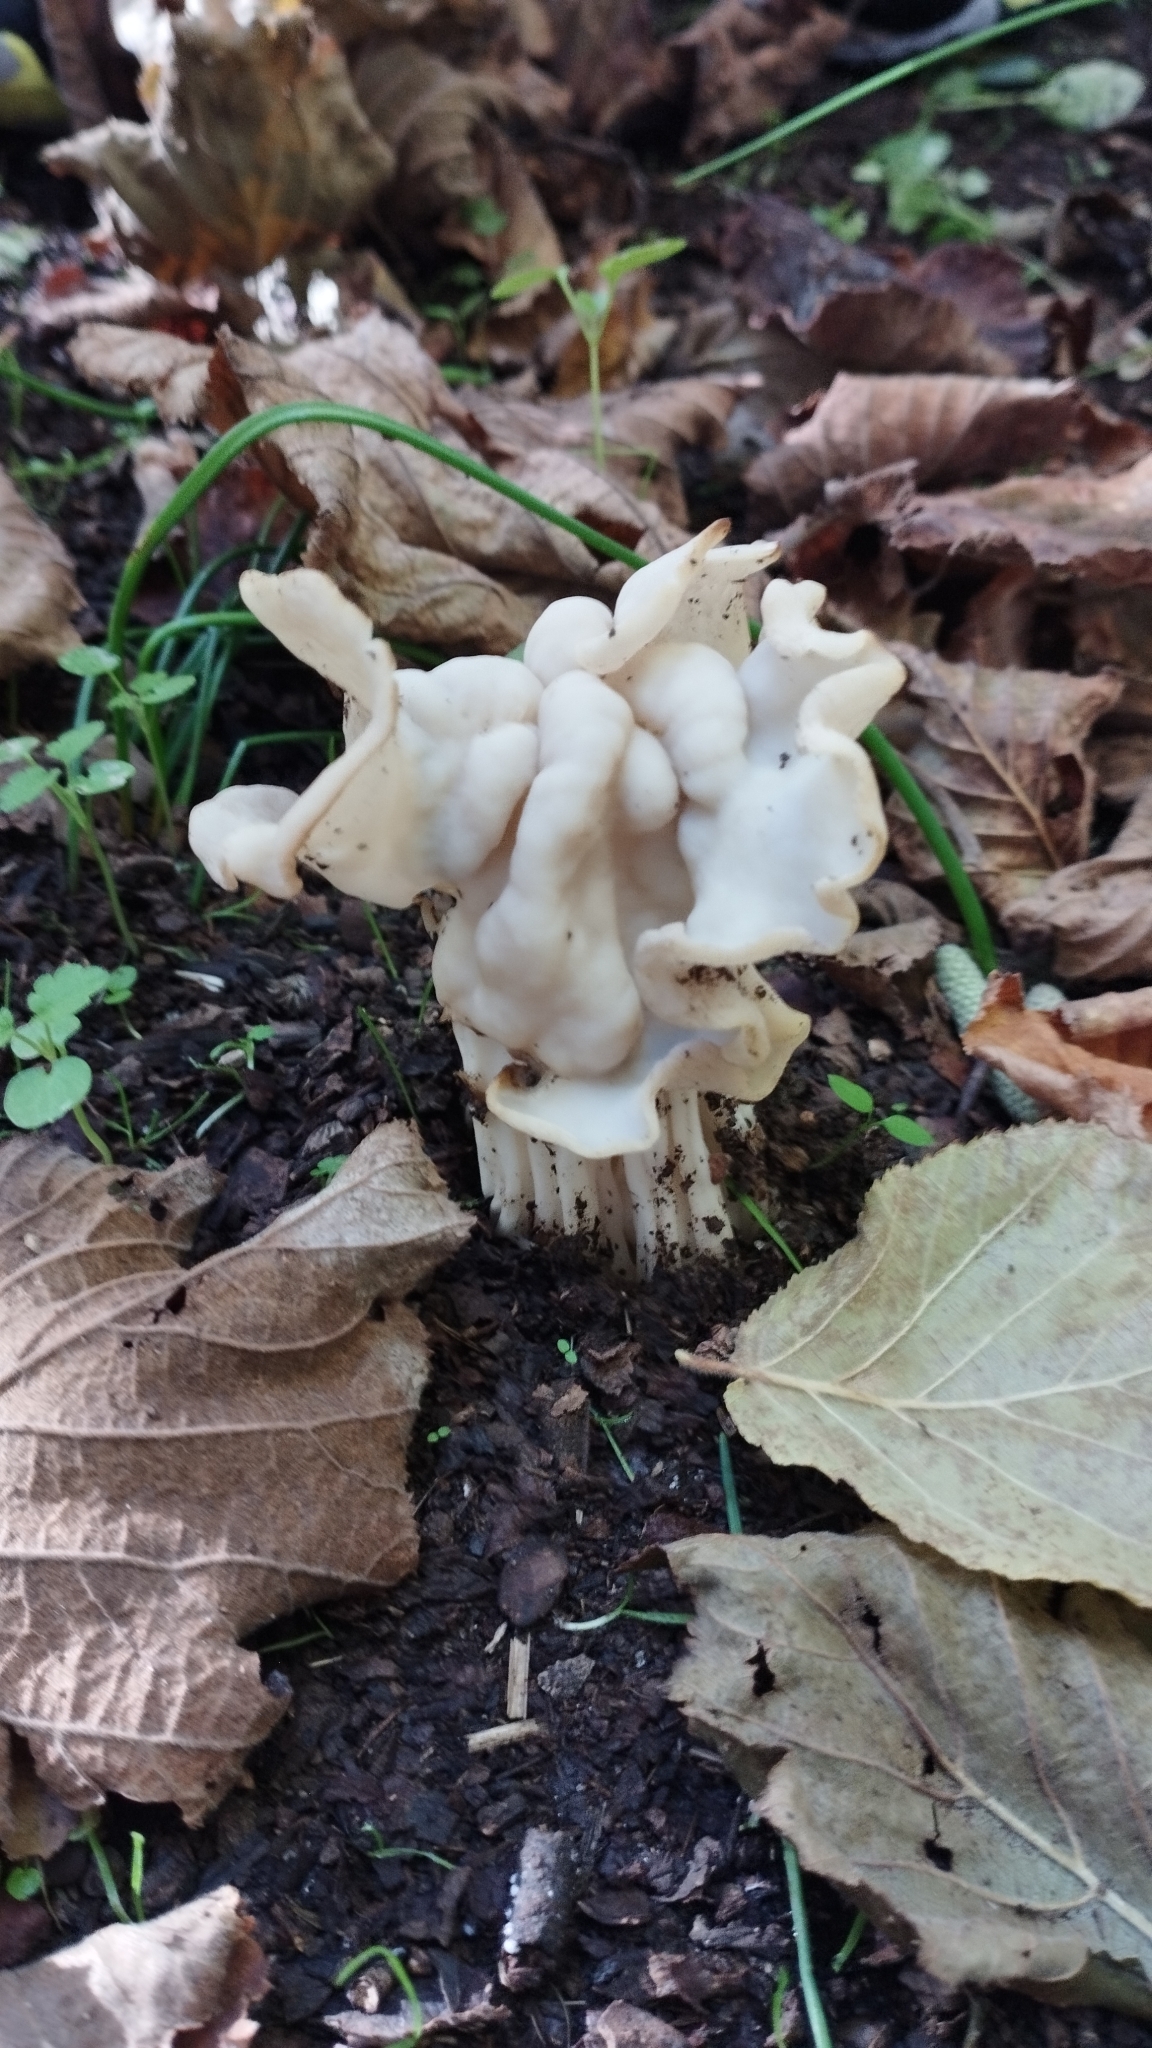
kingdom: Fungi
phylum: Ascomycota
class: Pezizomycetes
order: Pezizales
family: Helvellaceae
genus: Helvella
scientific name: Helvella crispa
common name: White saddle
